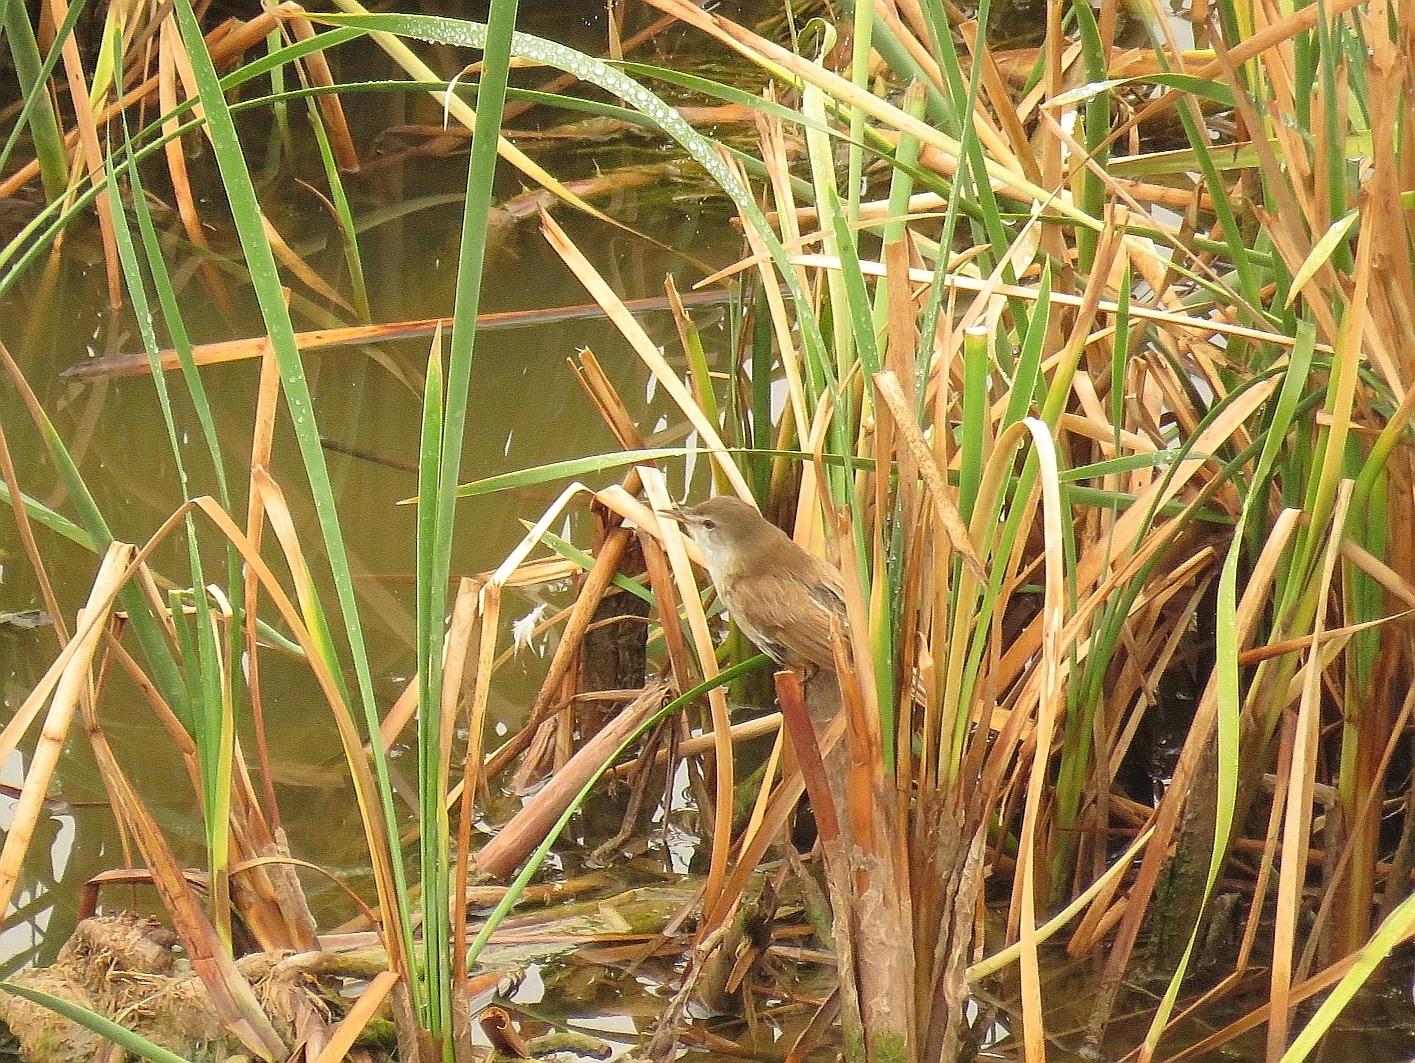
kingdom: Animalia
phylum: Chordata
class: Aves
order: Passeriformes
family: Acrocephalidae
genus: Acrocephalus
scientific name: Acrocephalus gracilirostris
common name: Lesser swamp warbler
